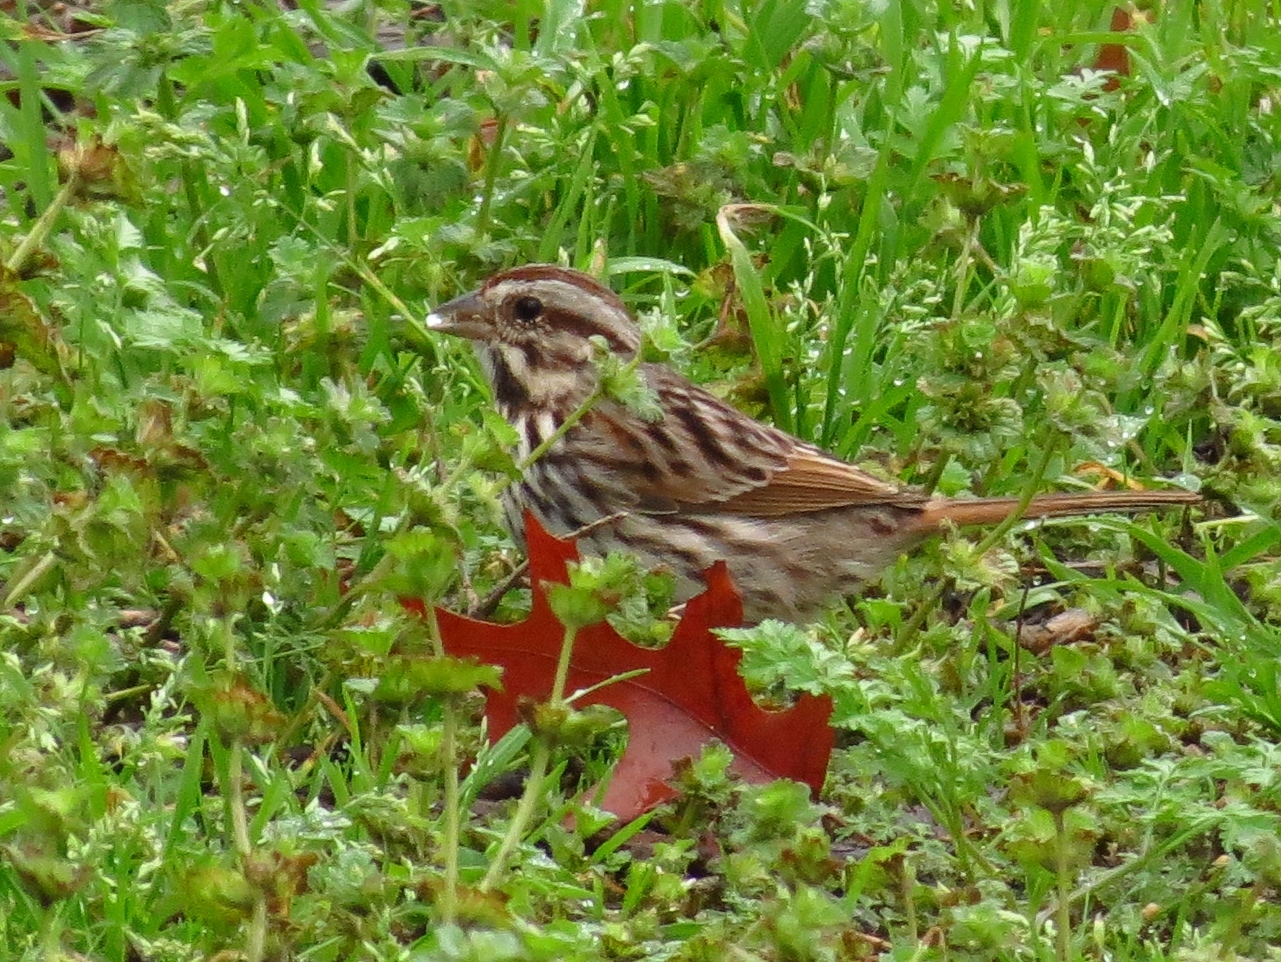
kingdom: Animalia
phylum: Chordata
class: Aves
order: Passeriformes
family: Passerellidae
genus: Melospiza
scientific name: Melospiza melodia
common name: Song sparrow
